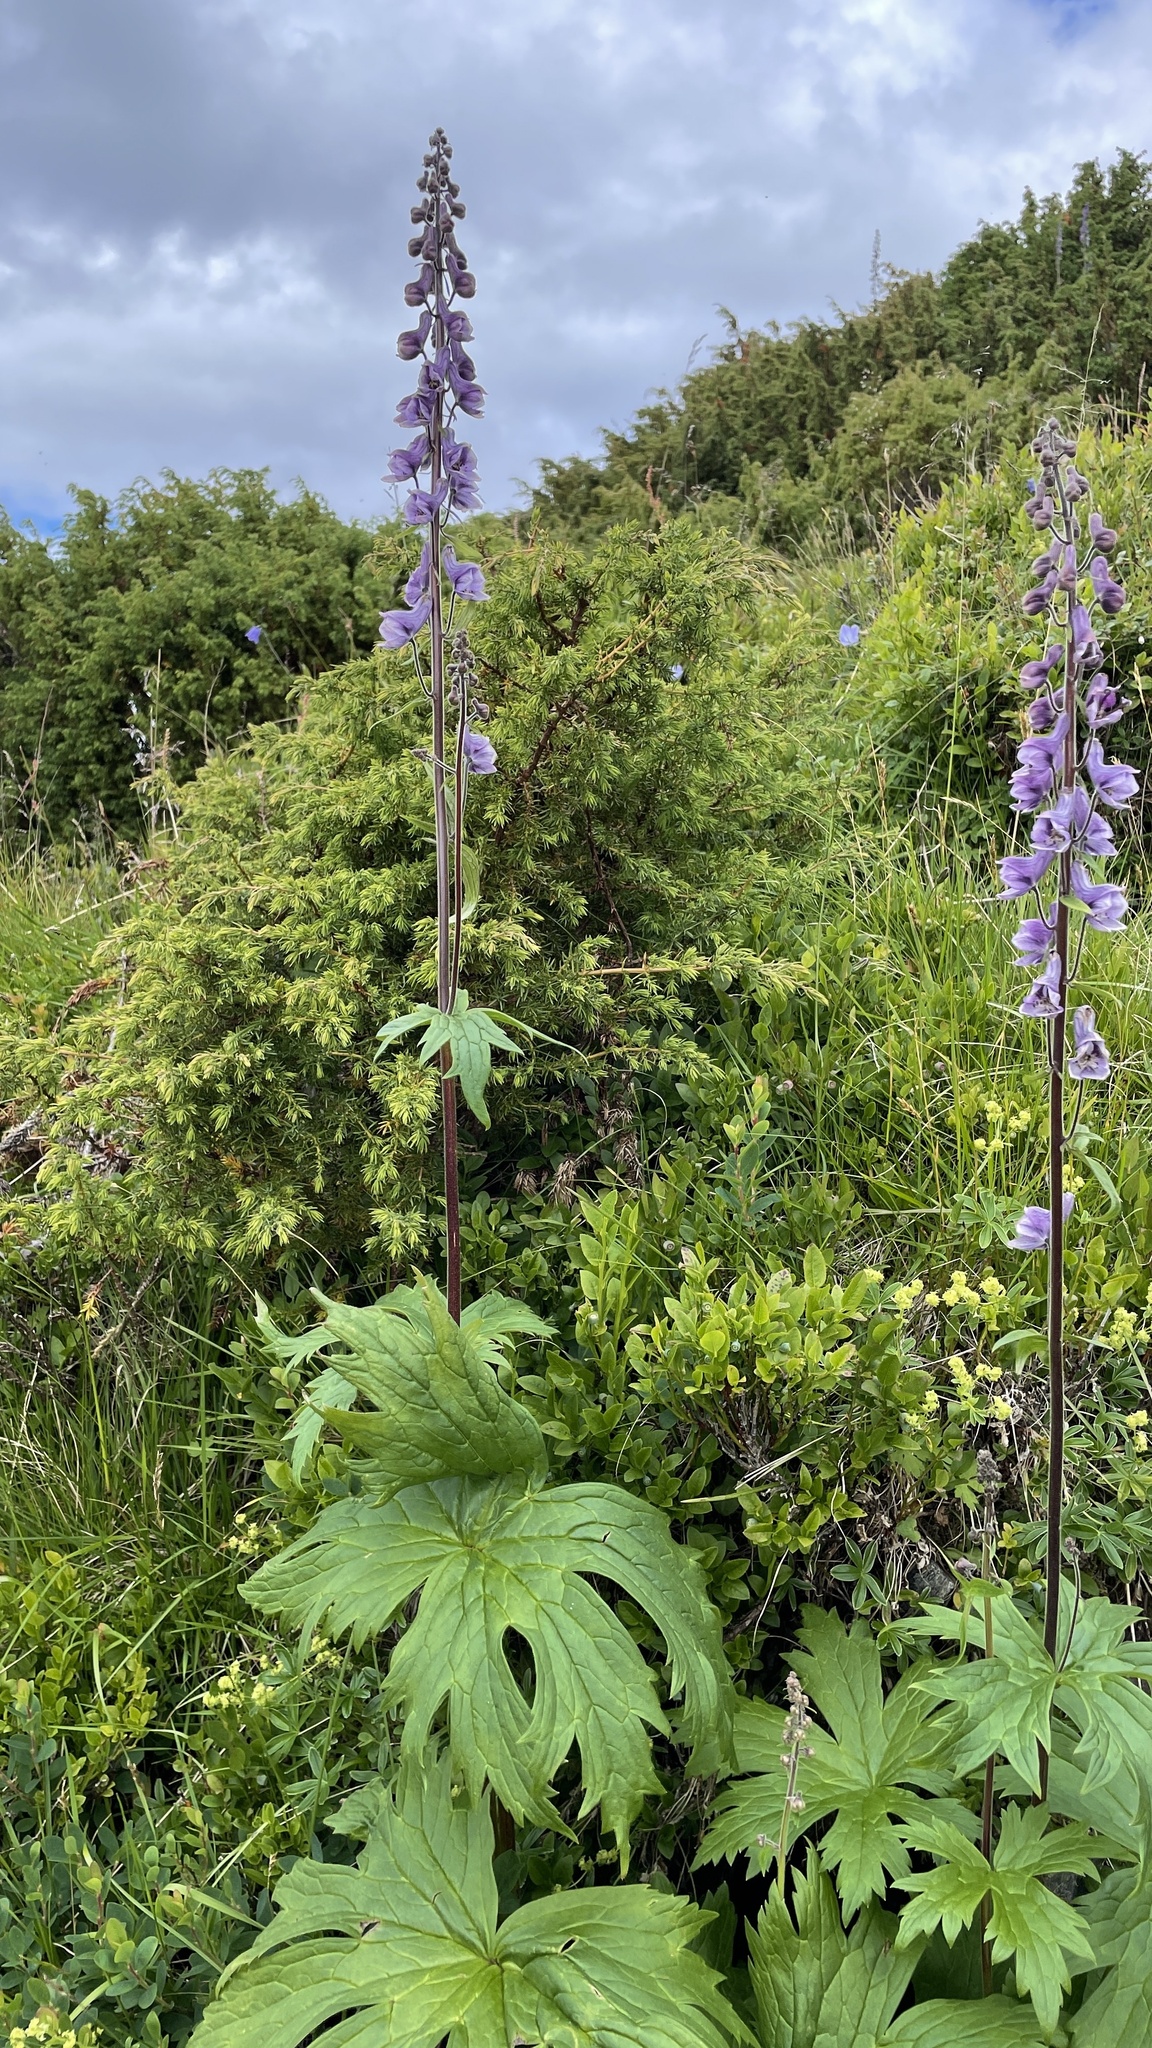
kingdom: Plantae
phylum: Tracheophyta
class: Magnoliopsida
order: Ranunculales
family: Ranunculaceae
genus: Aconitum
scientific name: Aconitum septentrionale
